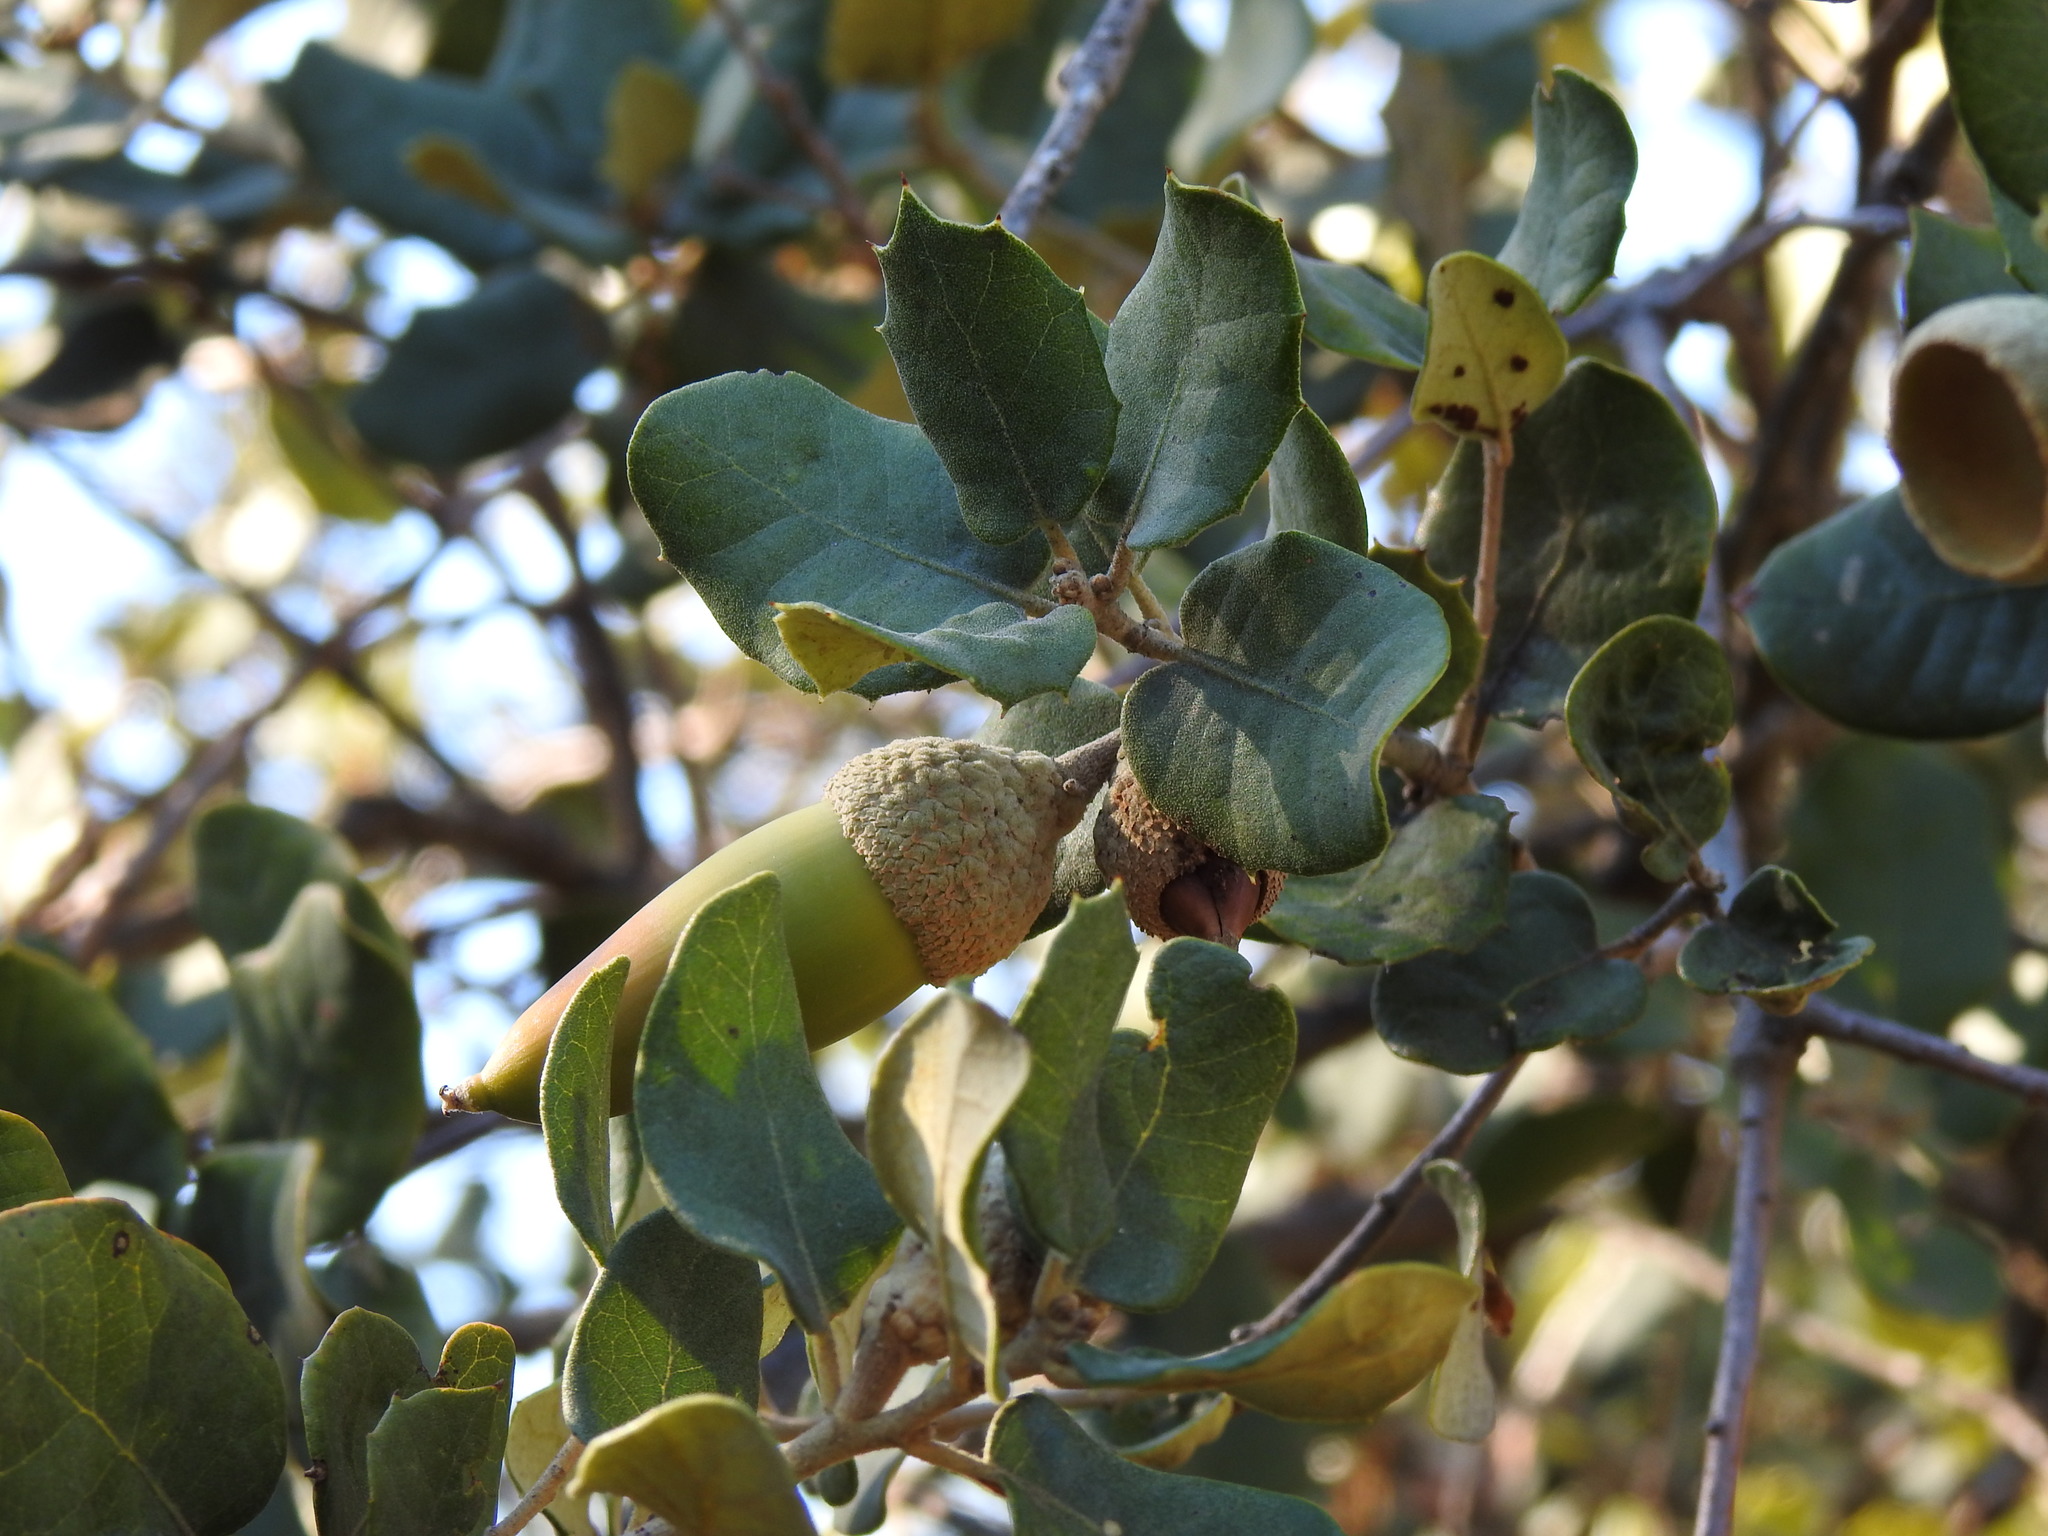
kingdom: Plantae
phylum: Tracheophyta
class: Magnoliopsida
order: Fagales
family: Fagaceae
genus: Quercus
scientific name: Quercus rotundifolia
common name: Holm oak
